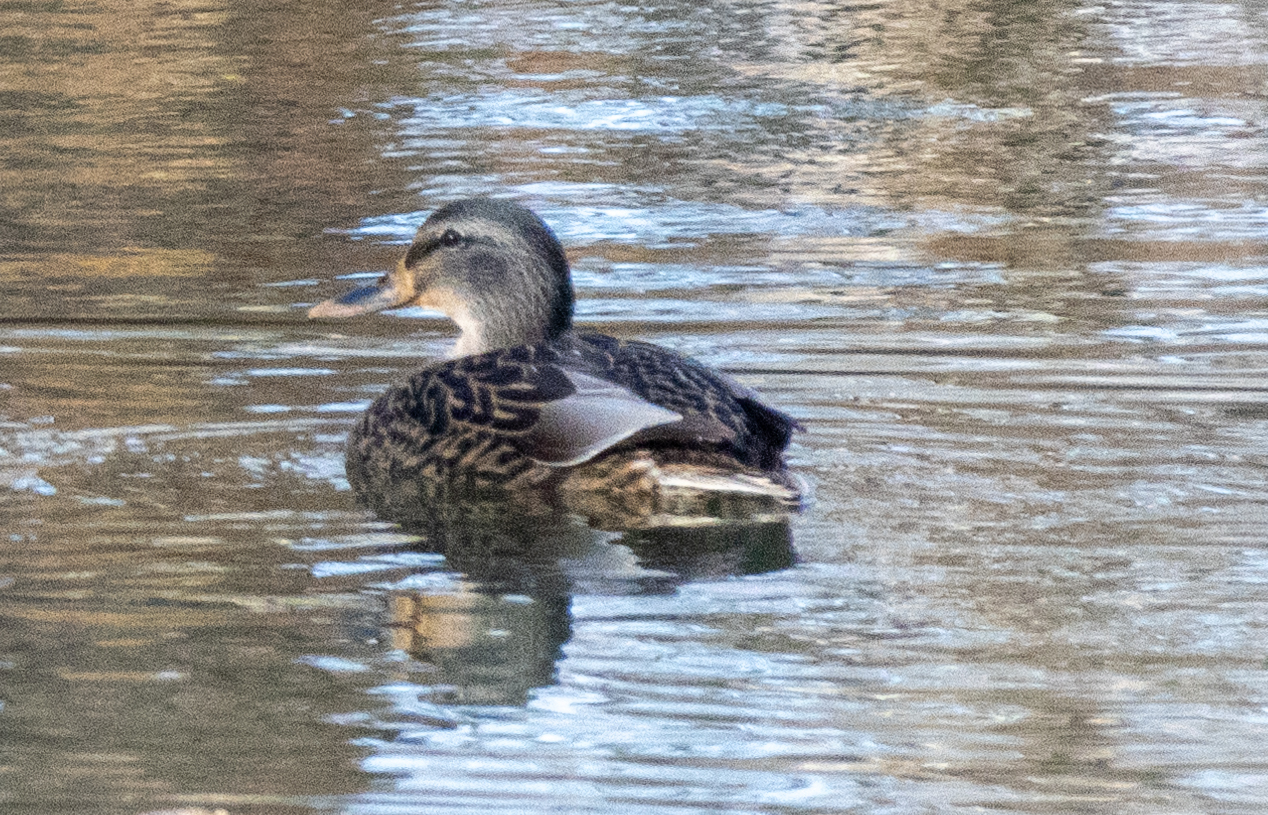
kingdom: Animalia
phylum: Chordata
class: Aves
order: Anseriformes
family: Anatidae
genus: Anas
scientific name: Anas platyrhynchos
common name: Mallard
